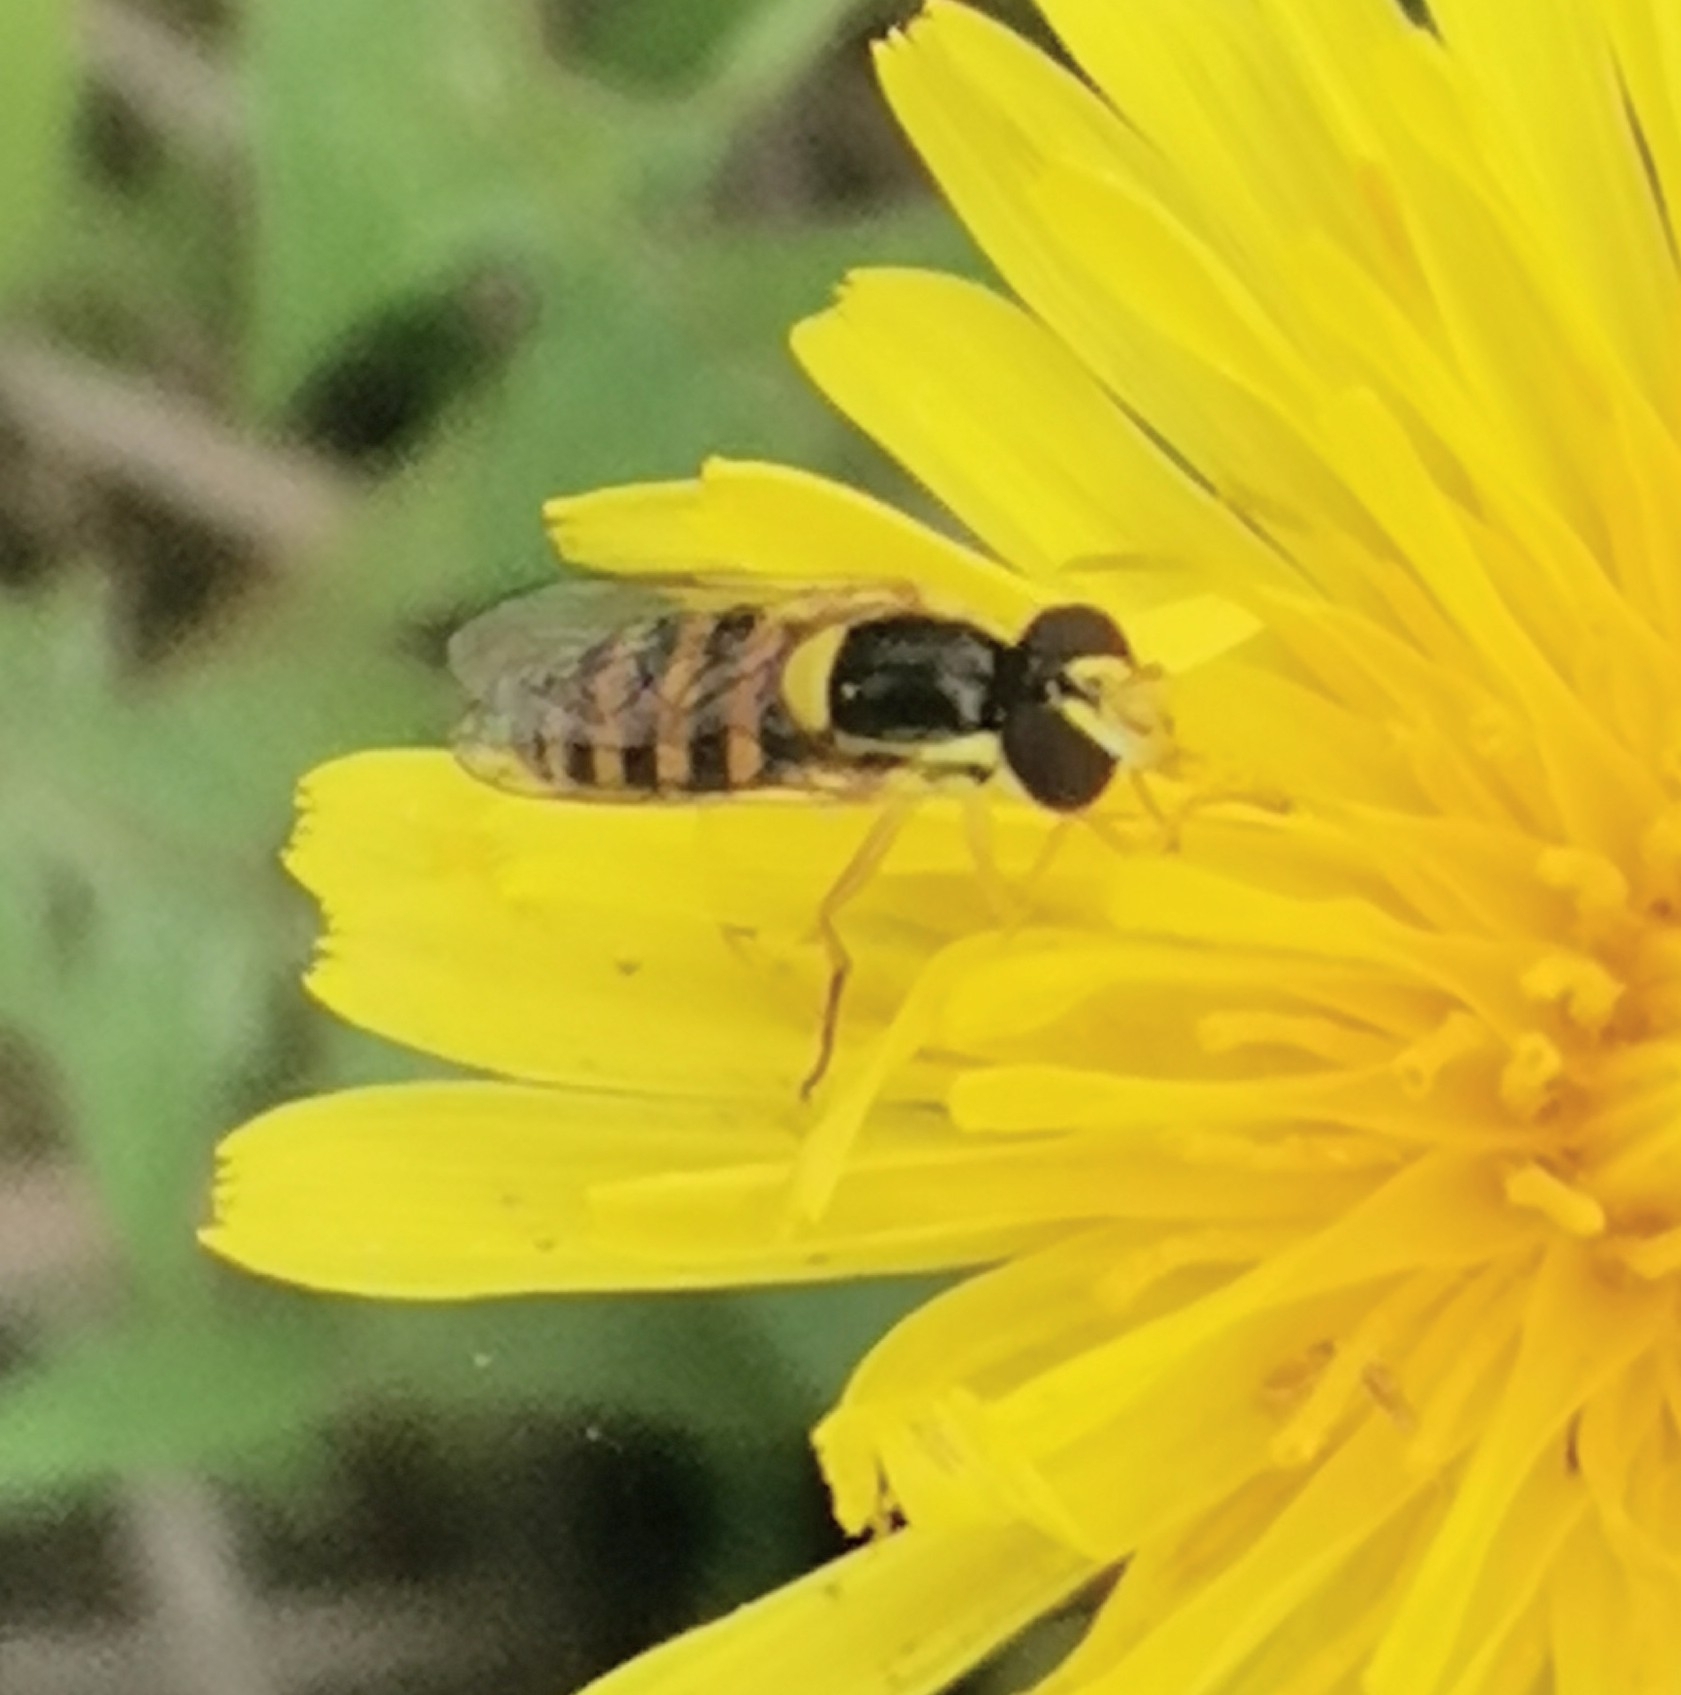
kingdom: Animalia
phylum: Arthropoda
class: Insecta
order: Diptera
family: Syrphidae
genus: Sphaerophoria
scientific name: Sphaerophoria
